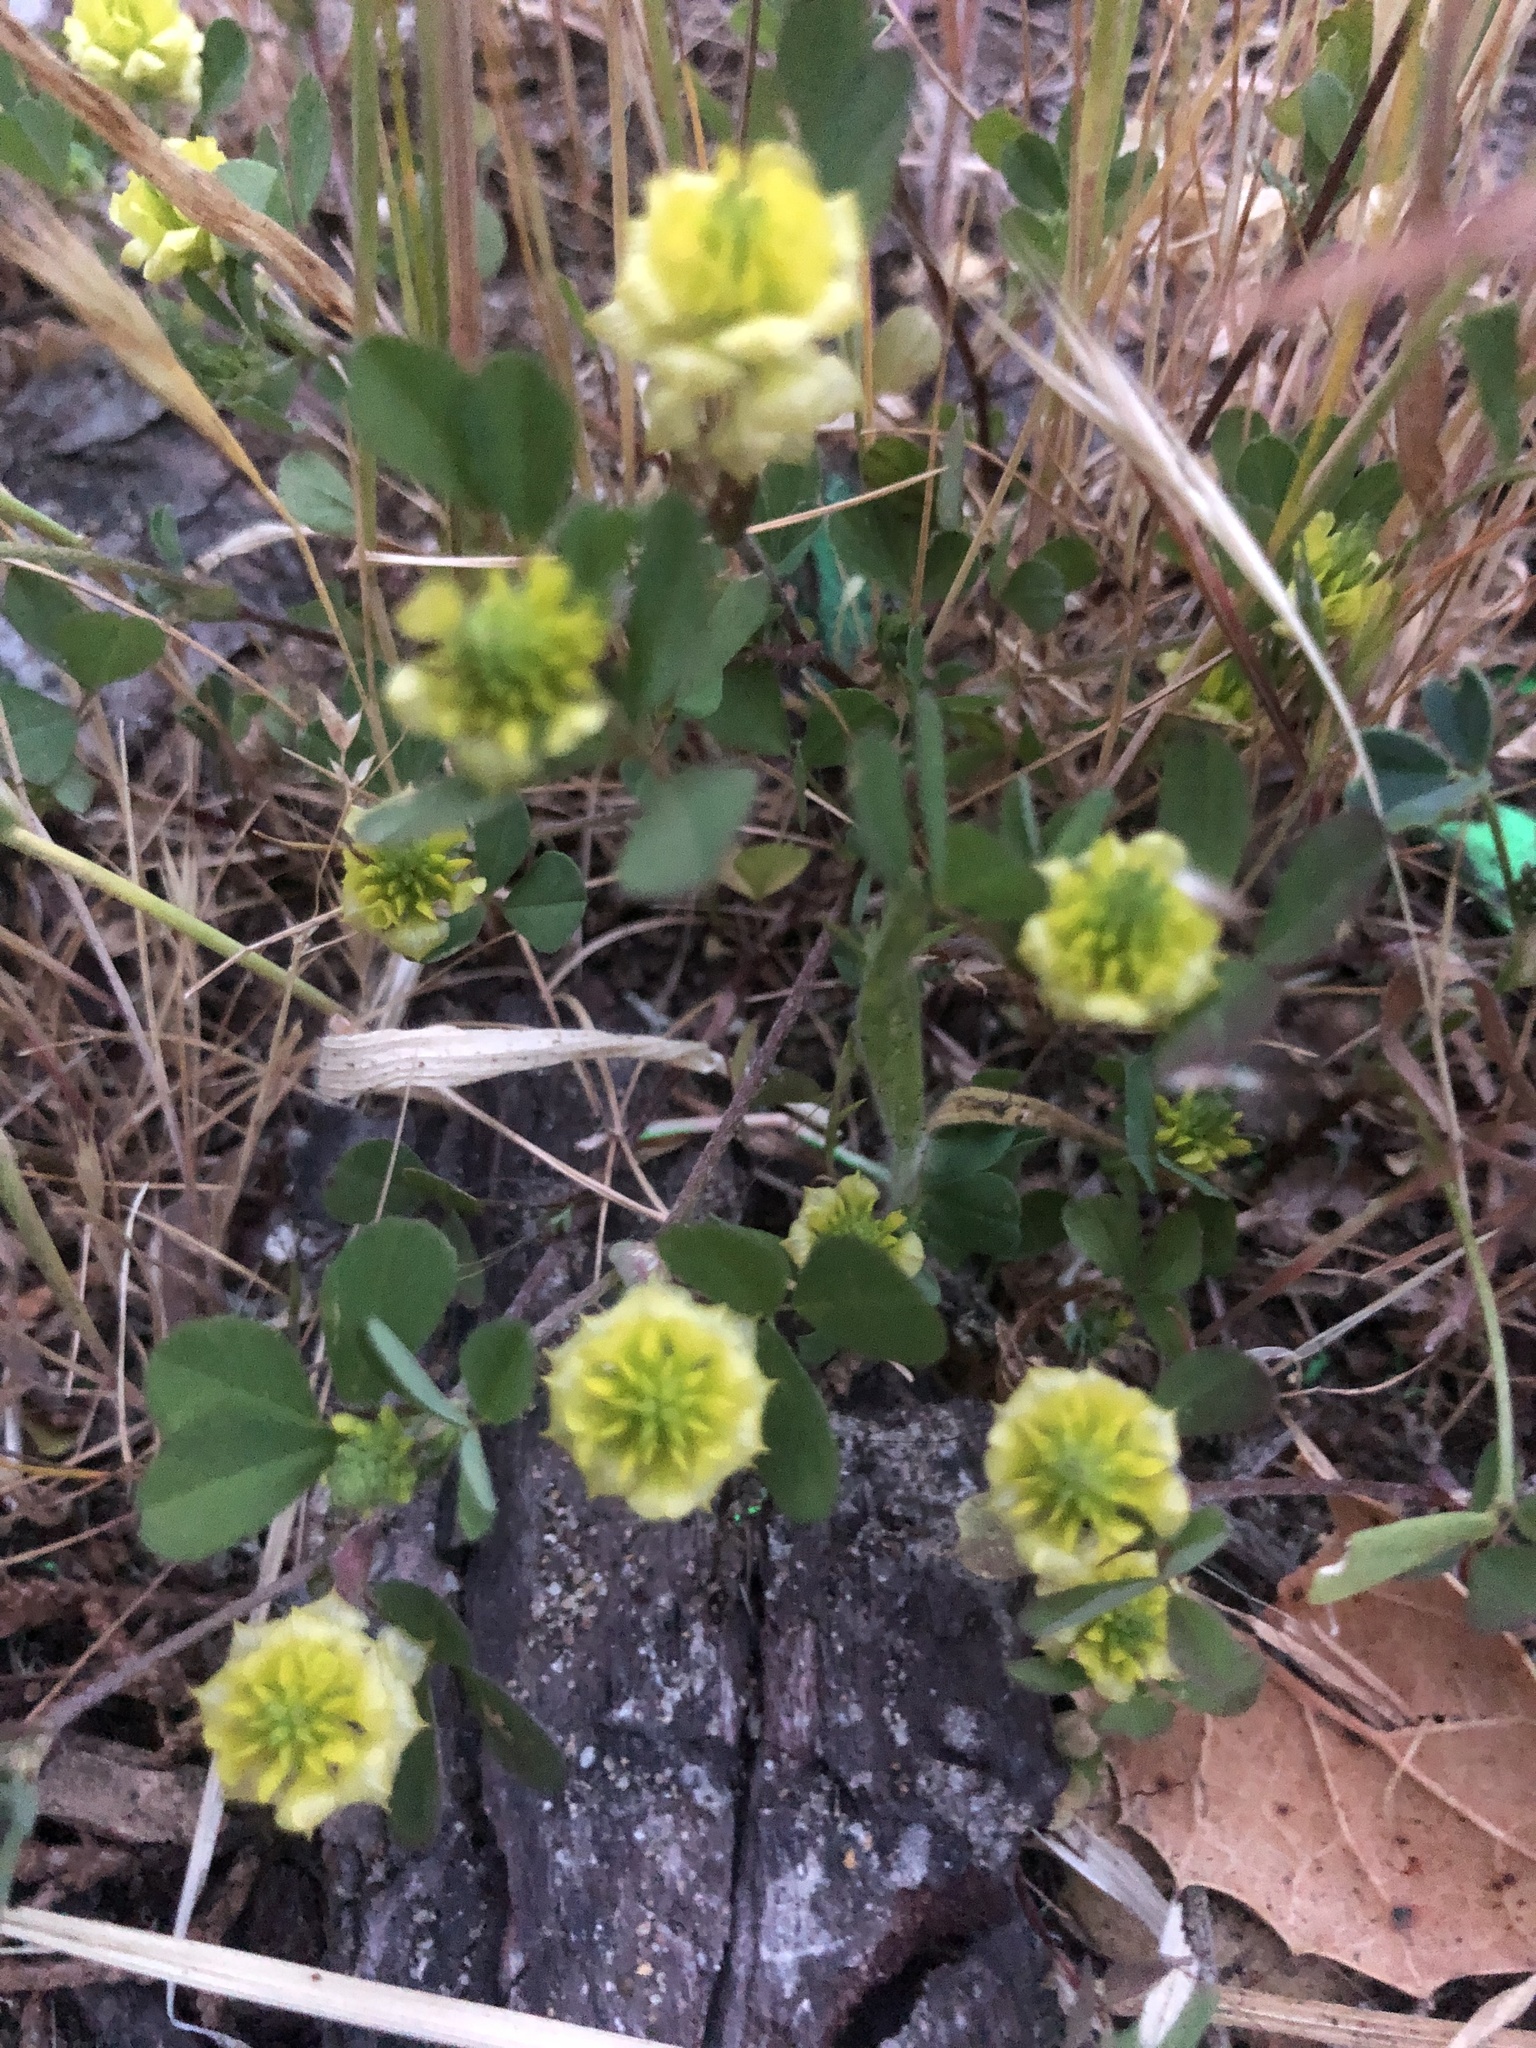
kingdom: Plantae
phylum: Tracheophyta
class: Magnoliopsida
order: Fabales
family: Fabaceae
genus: Trifolium
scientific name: Trifolium campestre
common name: Field clover
